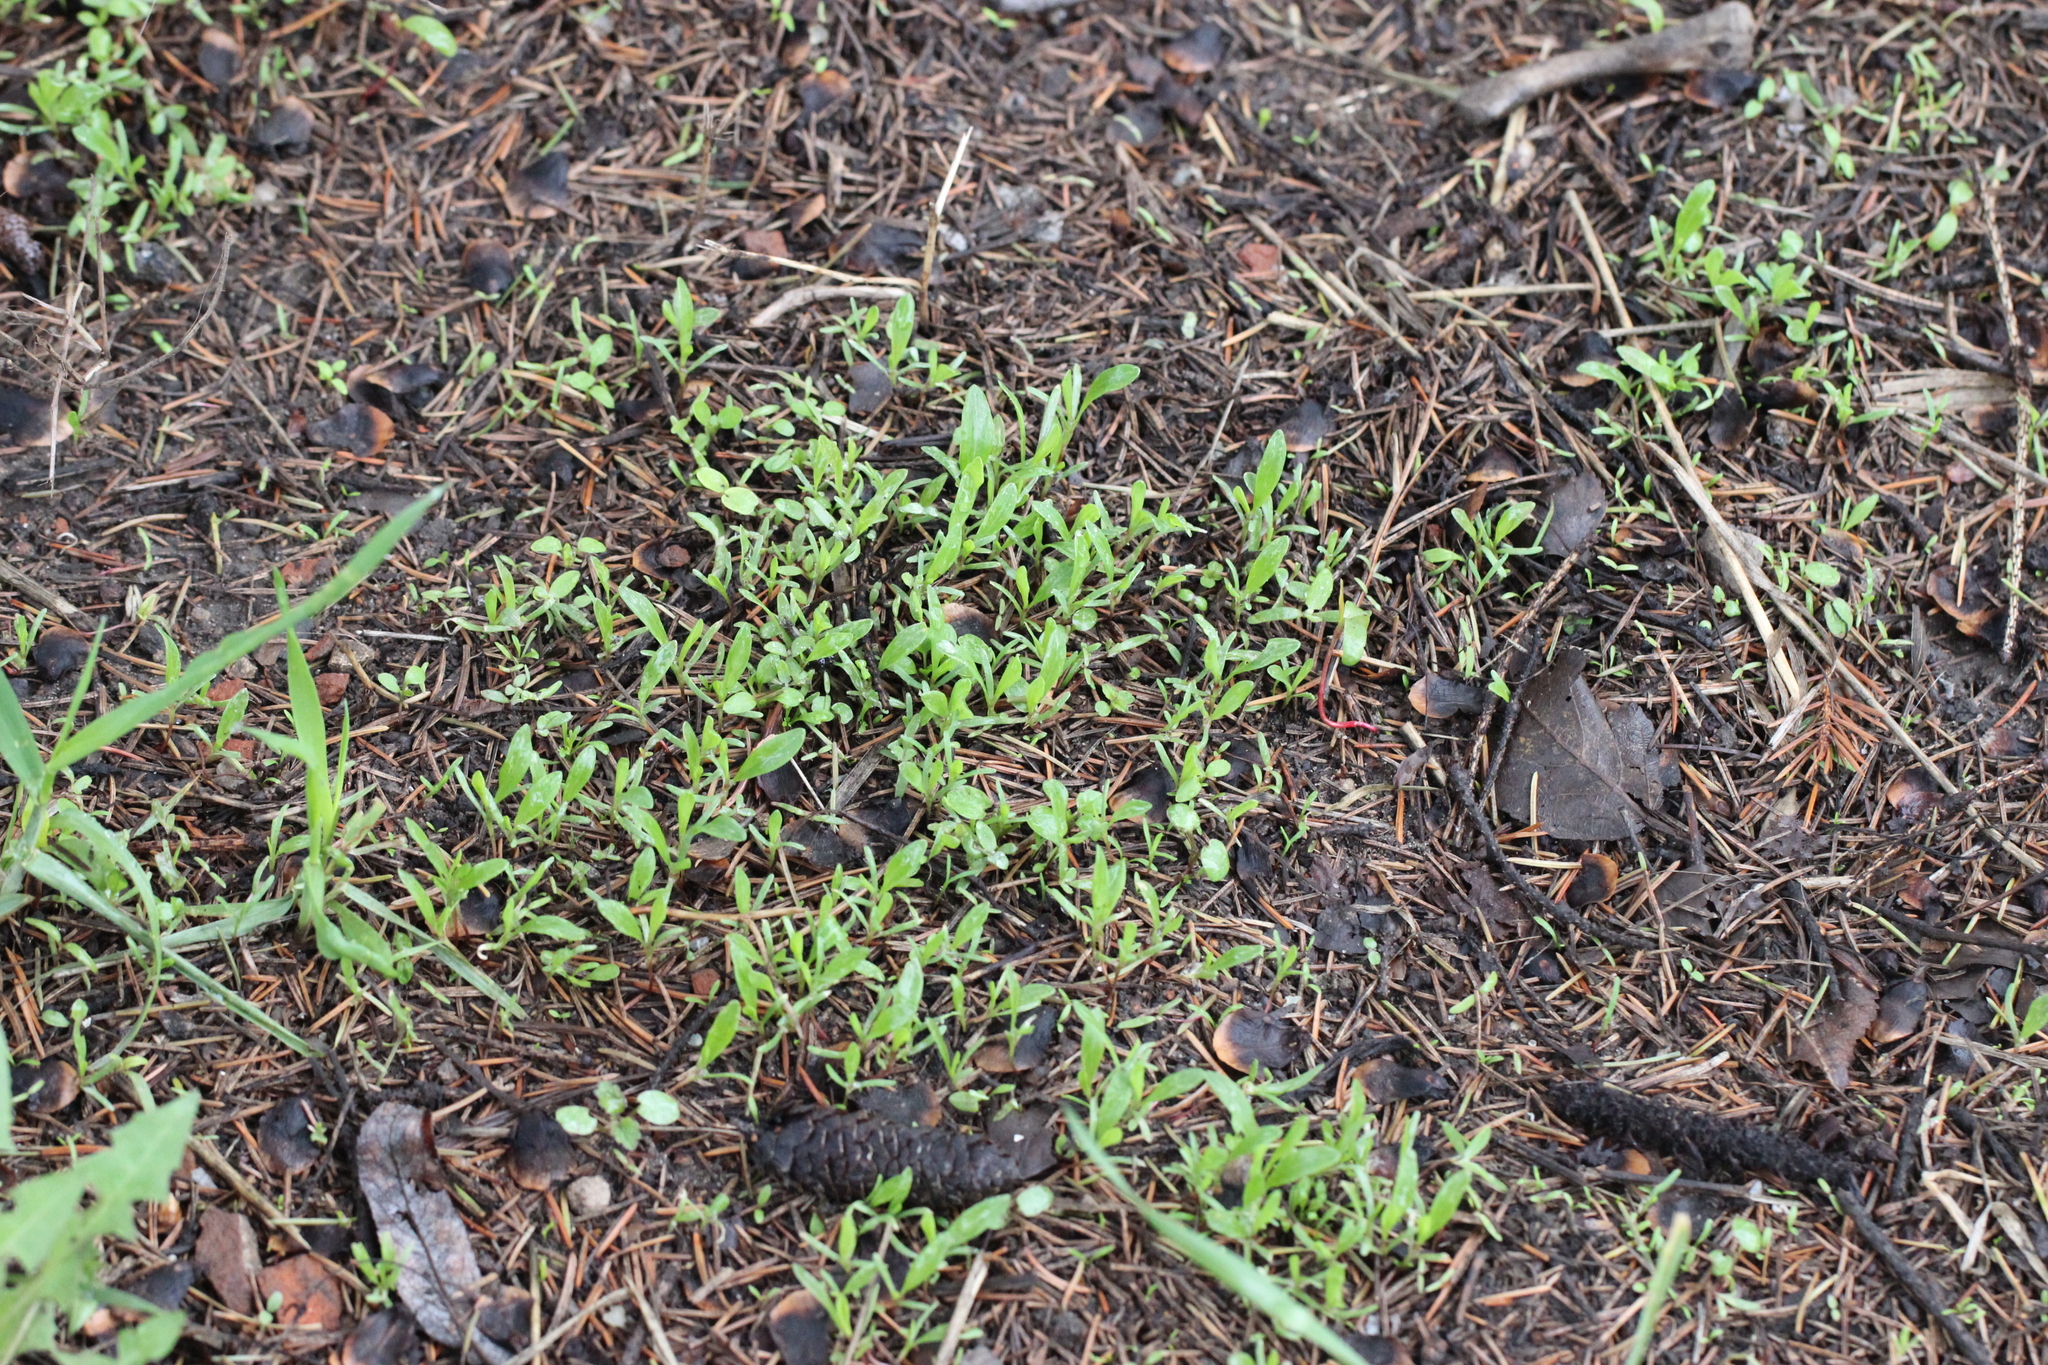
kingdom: Plantae
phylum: Tracheophyta
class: Magnoliopsida
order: Caryophyllales
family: Polygonaceae
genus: Polygonum
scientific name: Polygonum
